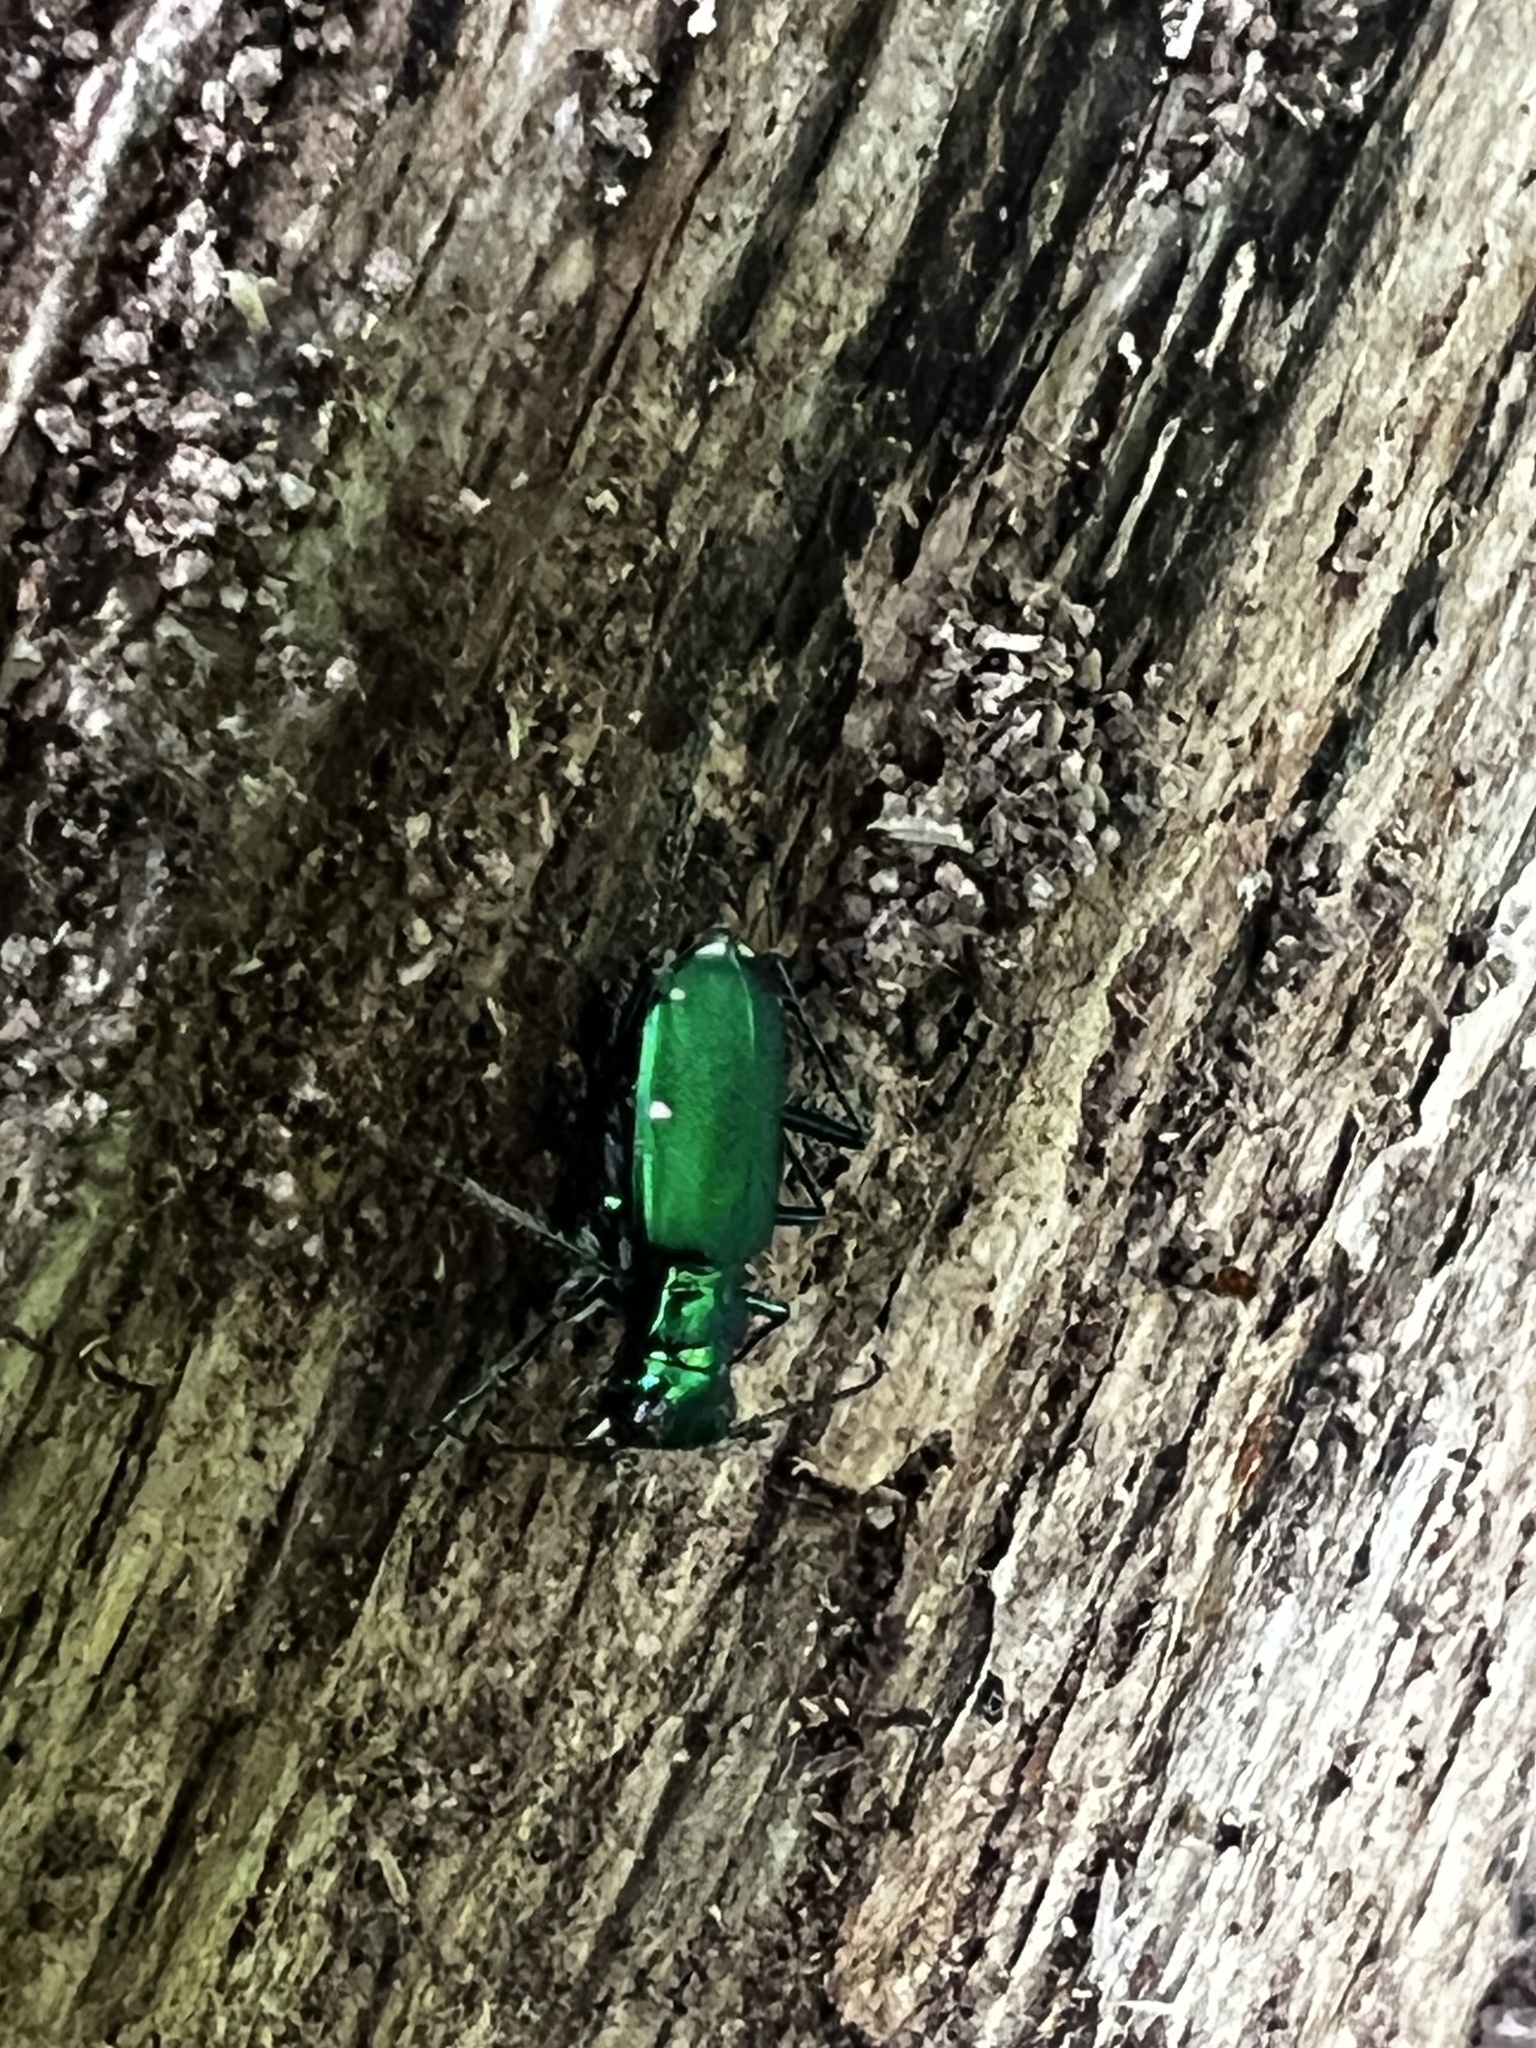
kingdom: Animalia
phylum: Arthropoda
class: Insecta
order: Coleoptera
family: Carabidae
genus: Cicindela
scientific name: Cicindela sexguttata
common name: Six-spotted tiger beetle
